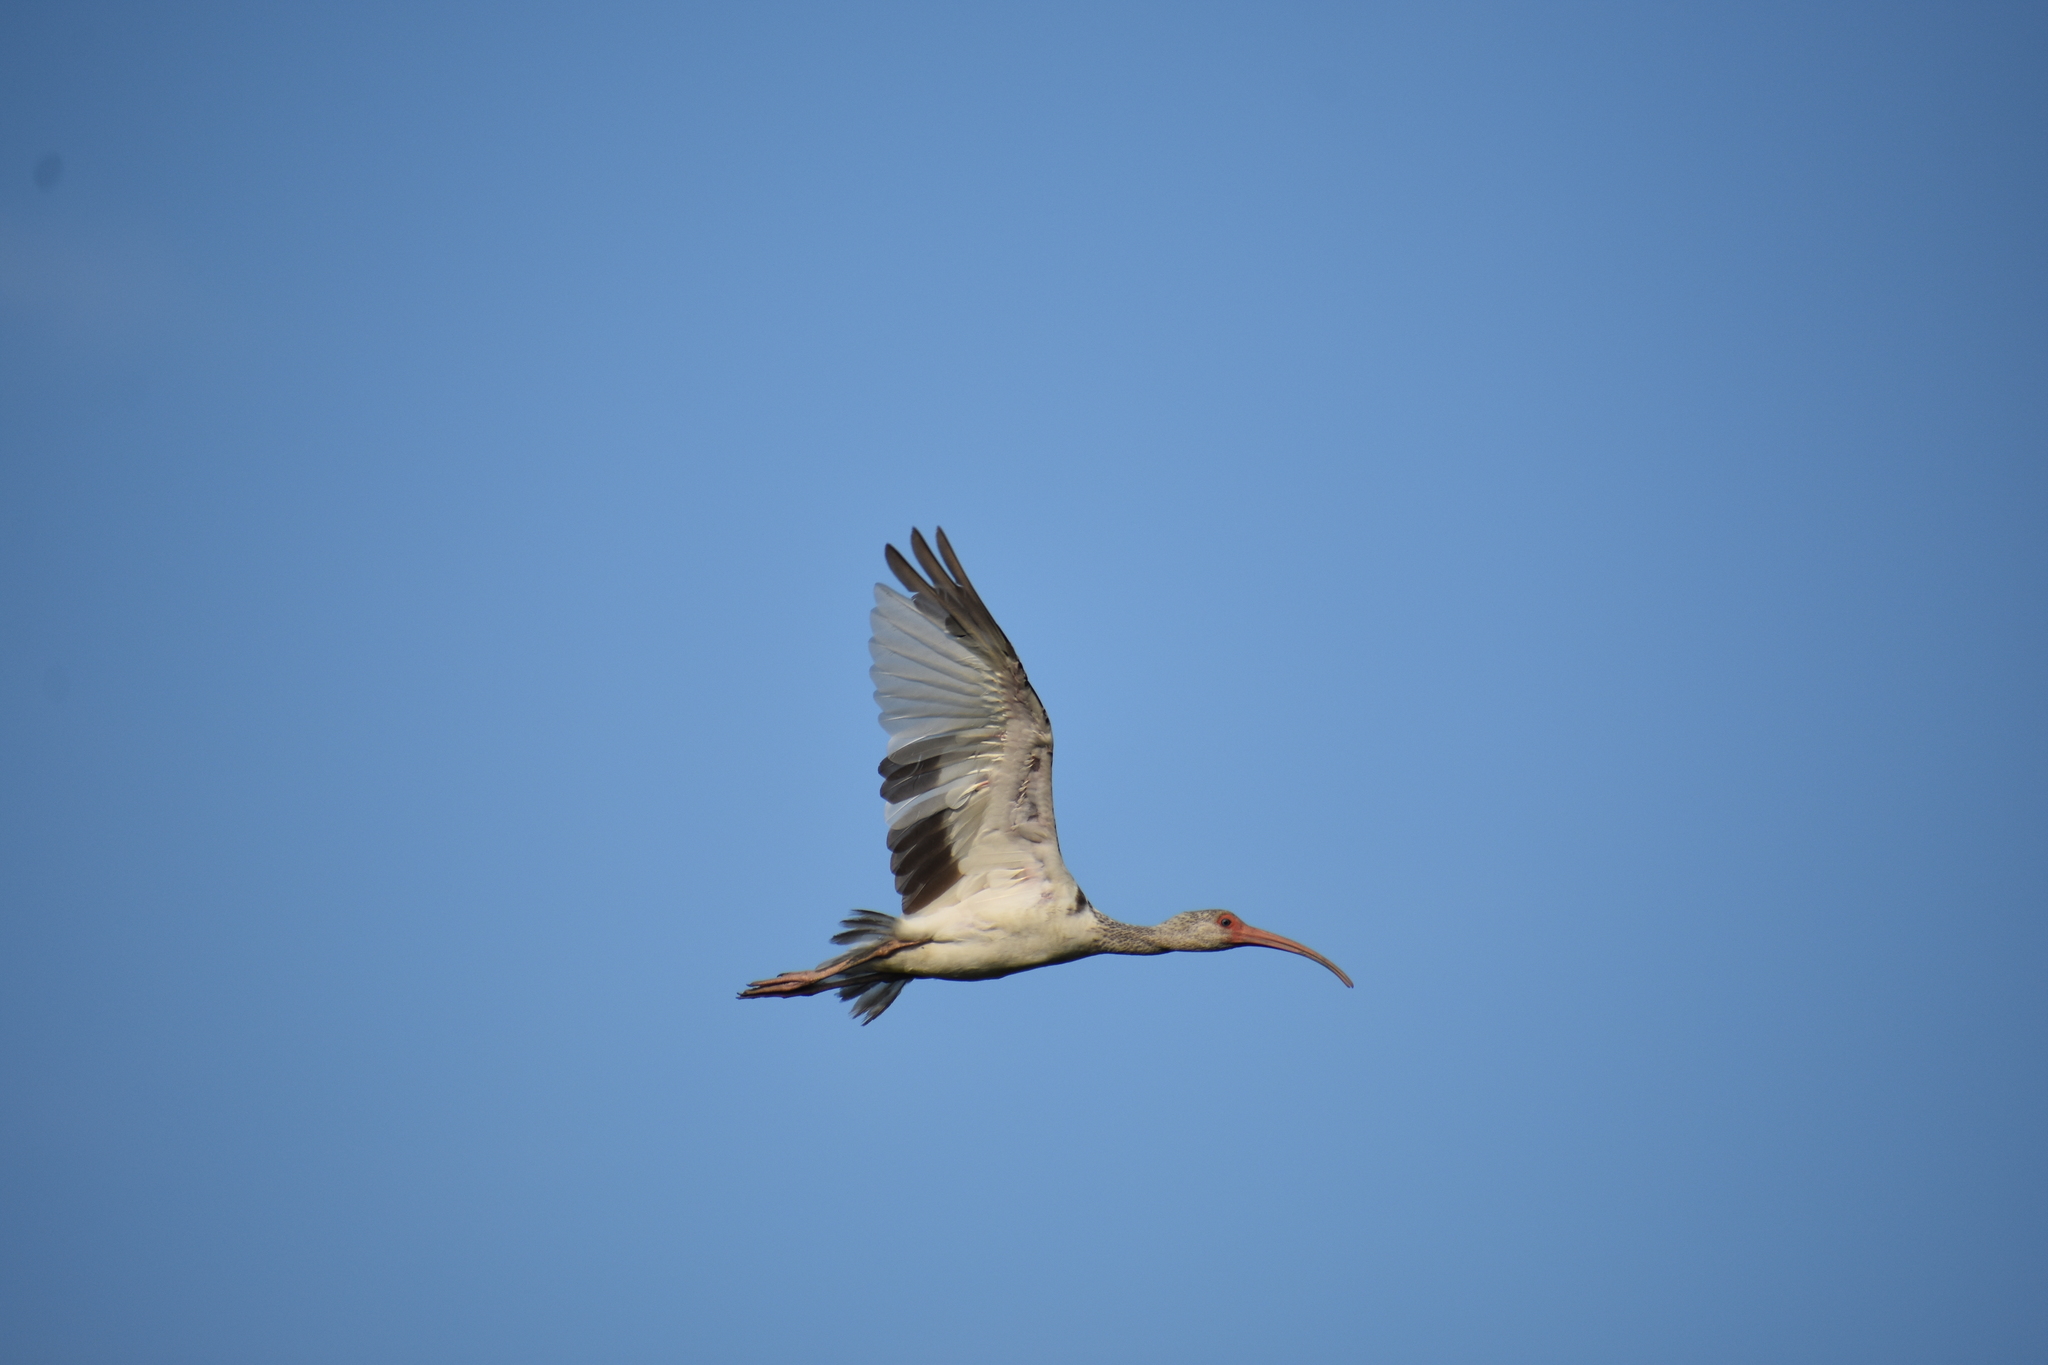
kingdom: Animalia
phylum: Chordata
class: Aves
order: Pelecaniformes
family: Threskiornithidae
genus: Eudocimus
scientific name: Eudocimus albus
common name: White ibis
